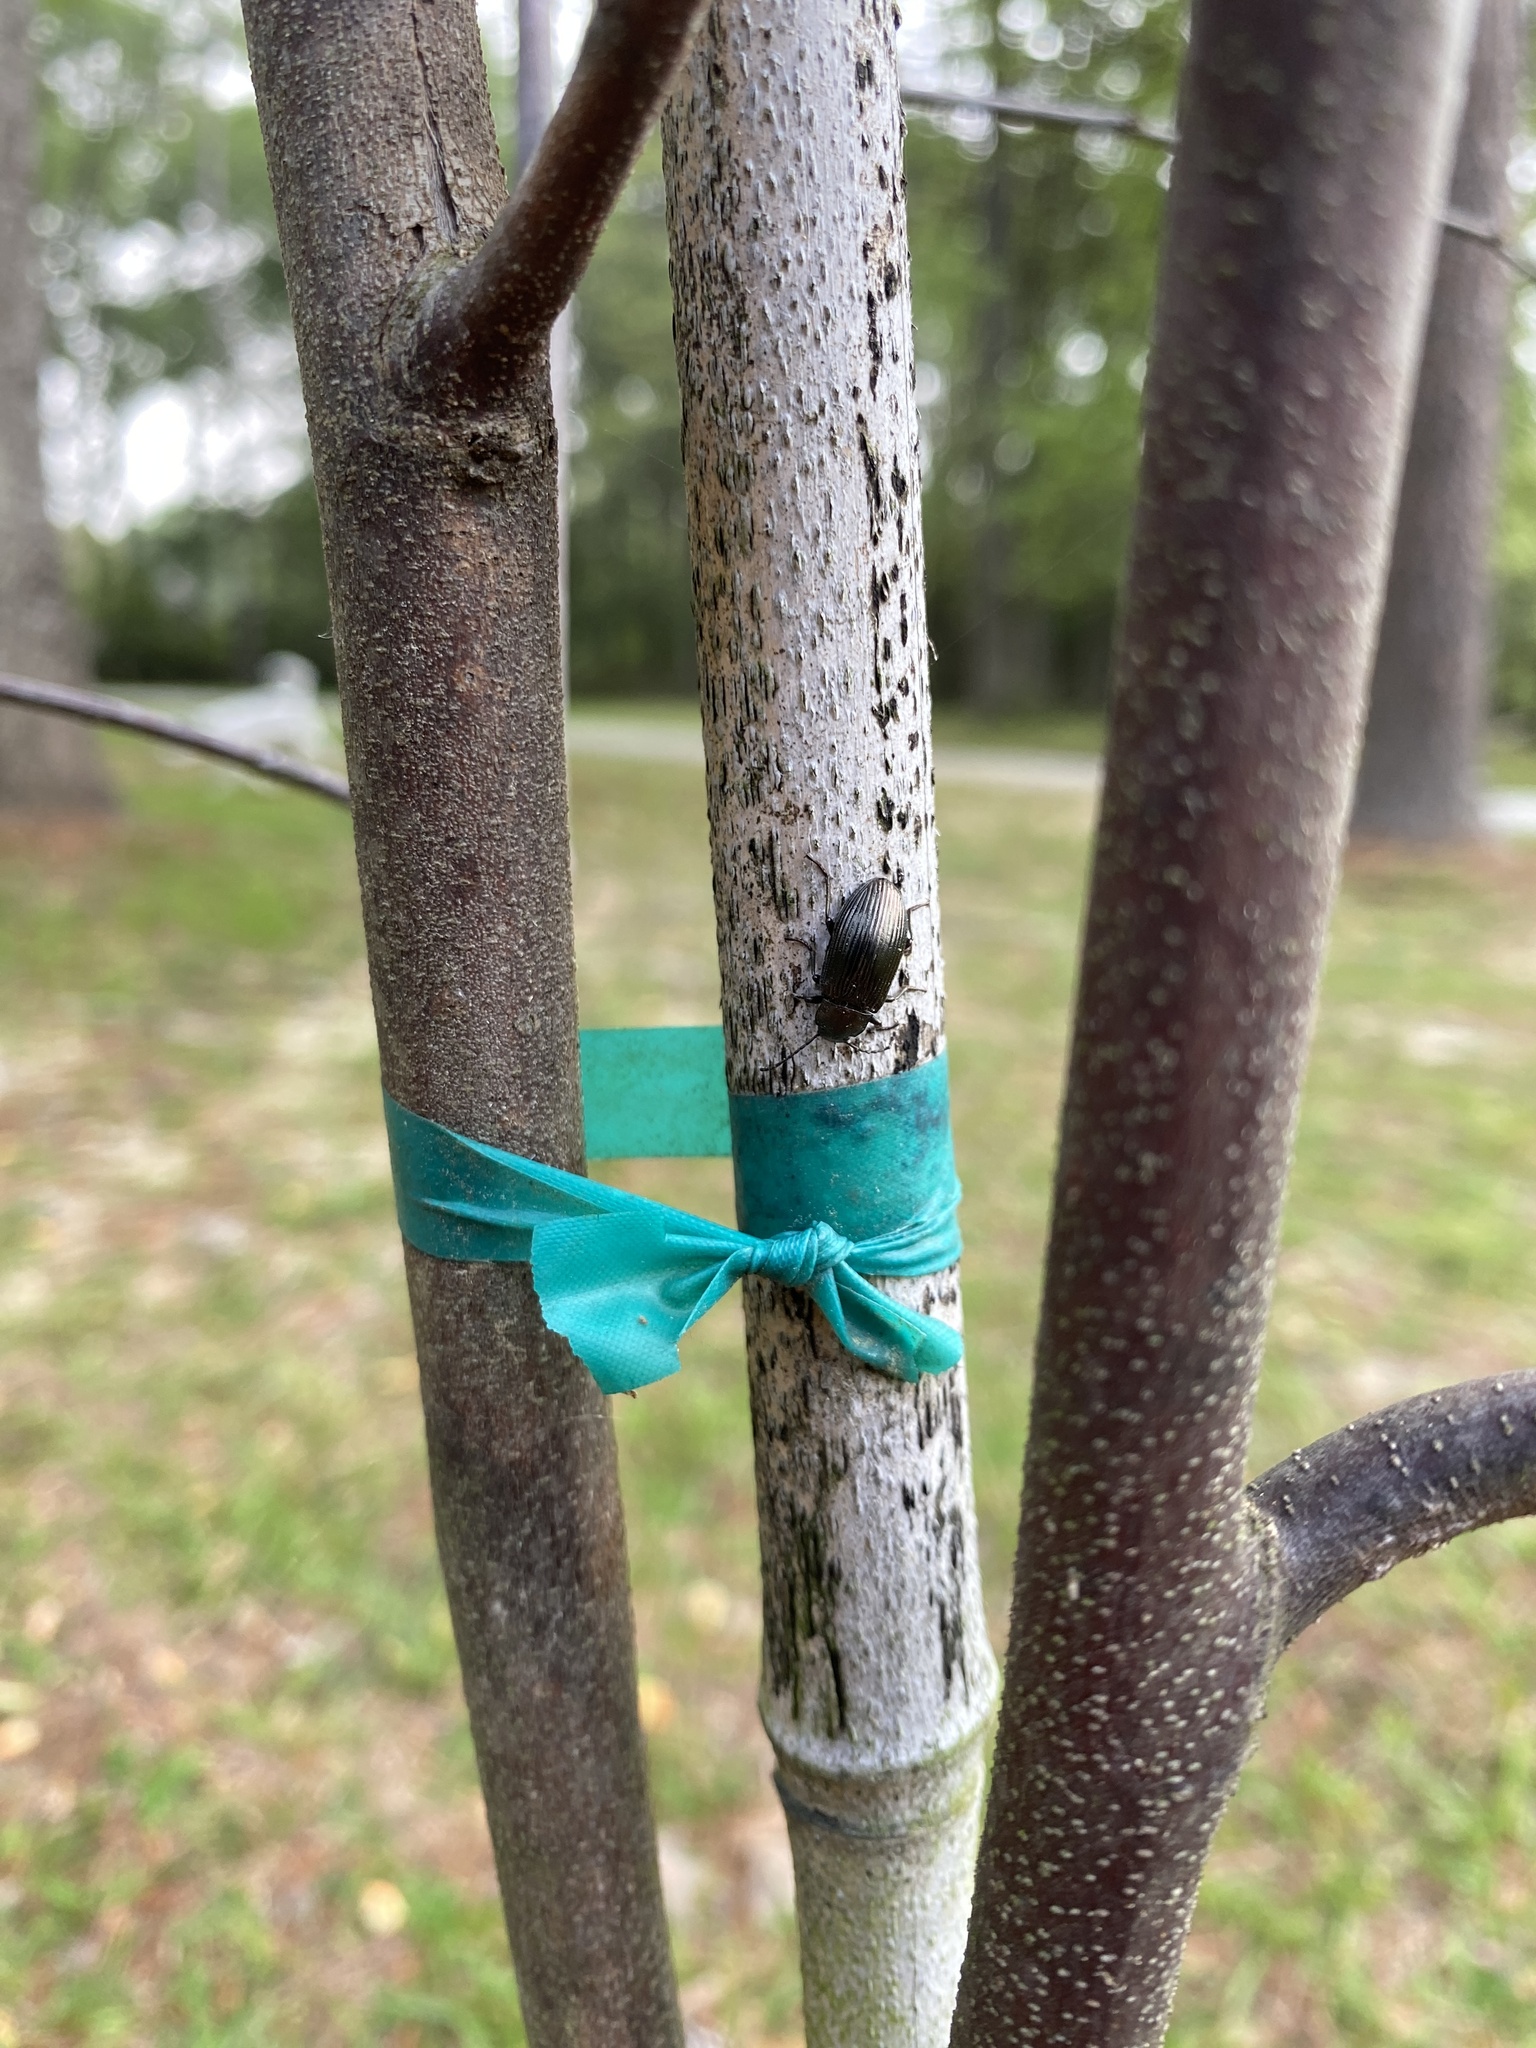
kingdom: Animalia
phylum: Arthropoda
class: Insecta
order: Coleoptera
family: Tenebrionidae
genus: Tarpela
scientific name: Tarpela venusta
